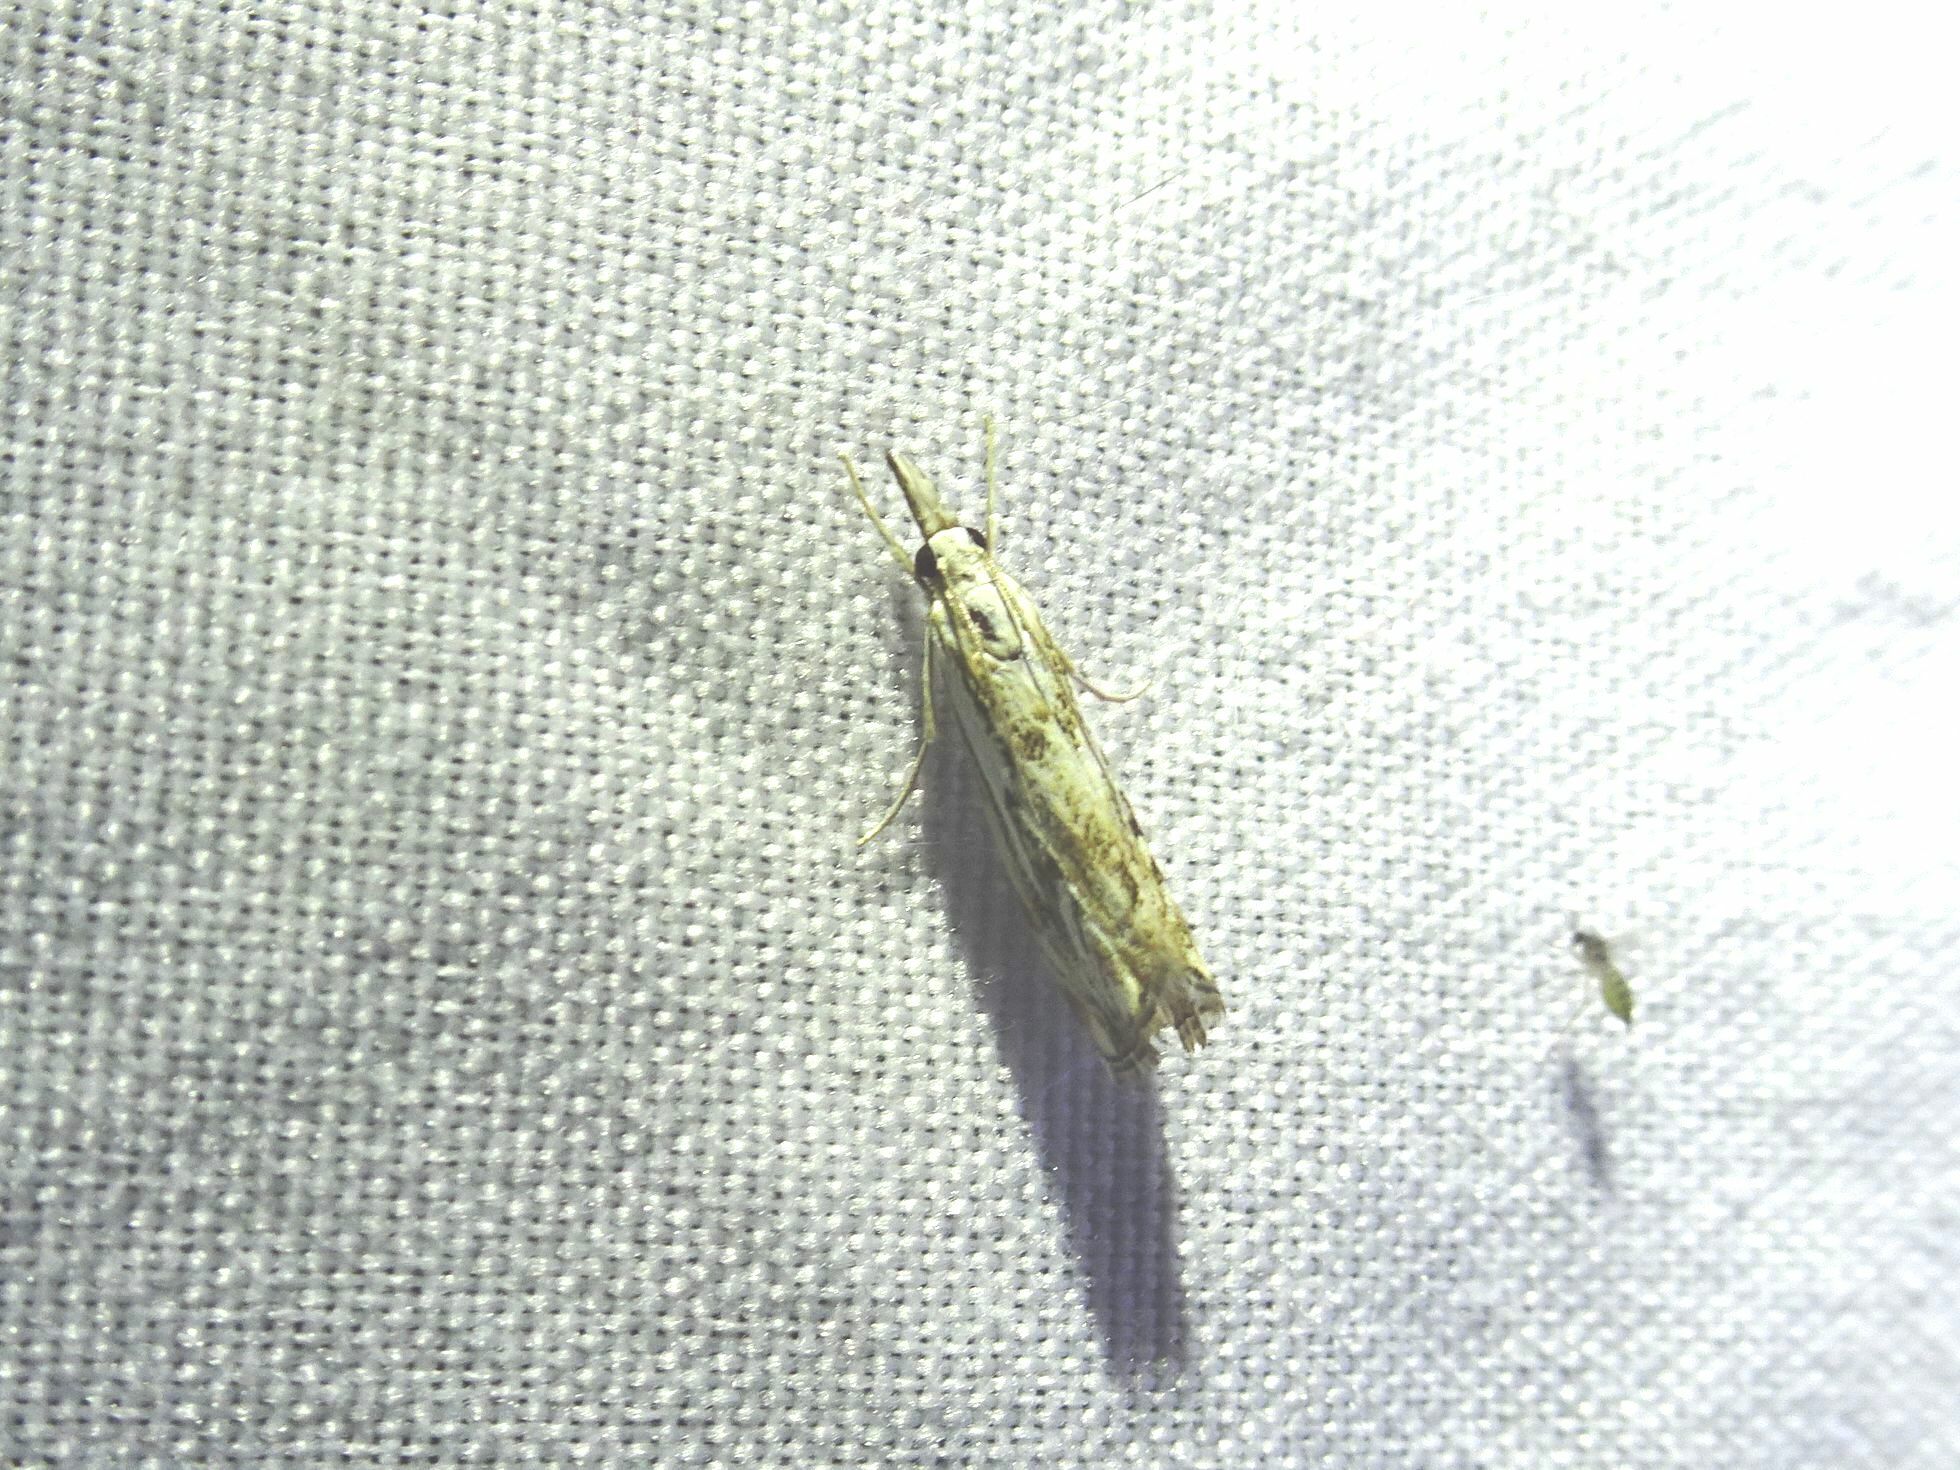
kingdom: Animalia
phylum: Arthropoda
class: Insecta
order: Lepidoptera
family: Crambidae
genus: Catoptria
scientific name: Catoptria falsella
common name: Chequered grass-veneer
